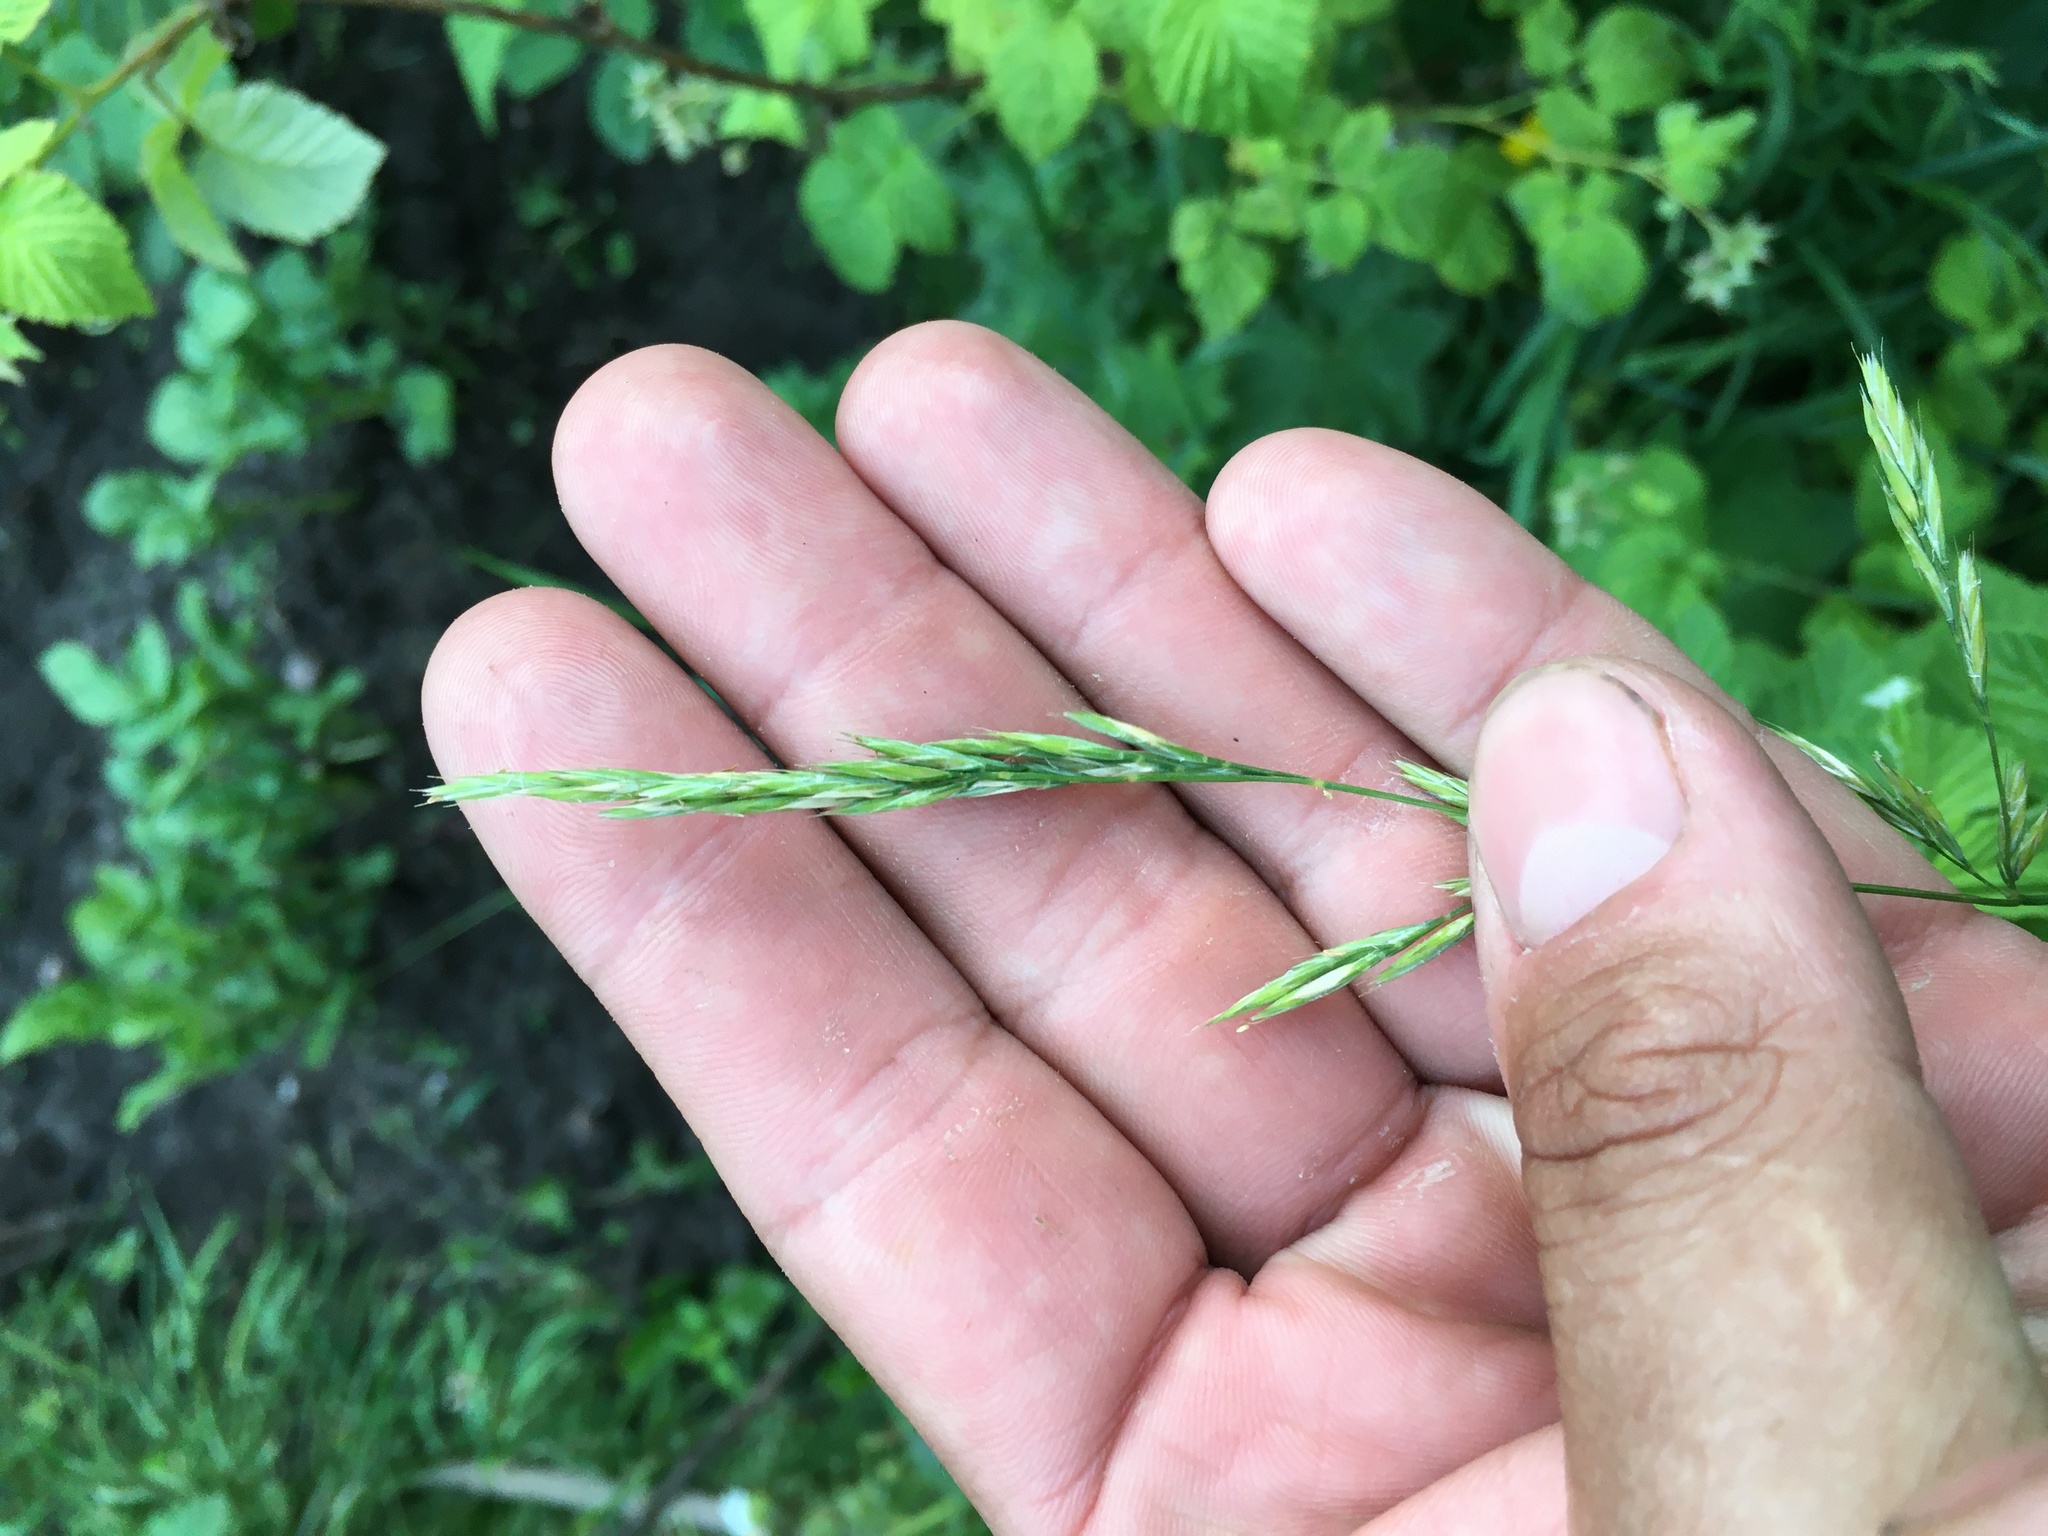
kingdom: Plantae
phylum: Tracheophyta
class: Liliopsida
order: Poales
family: Poaceae
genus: Festuca
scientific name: Festuca rubra
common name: Red fescue
